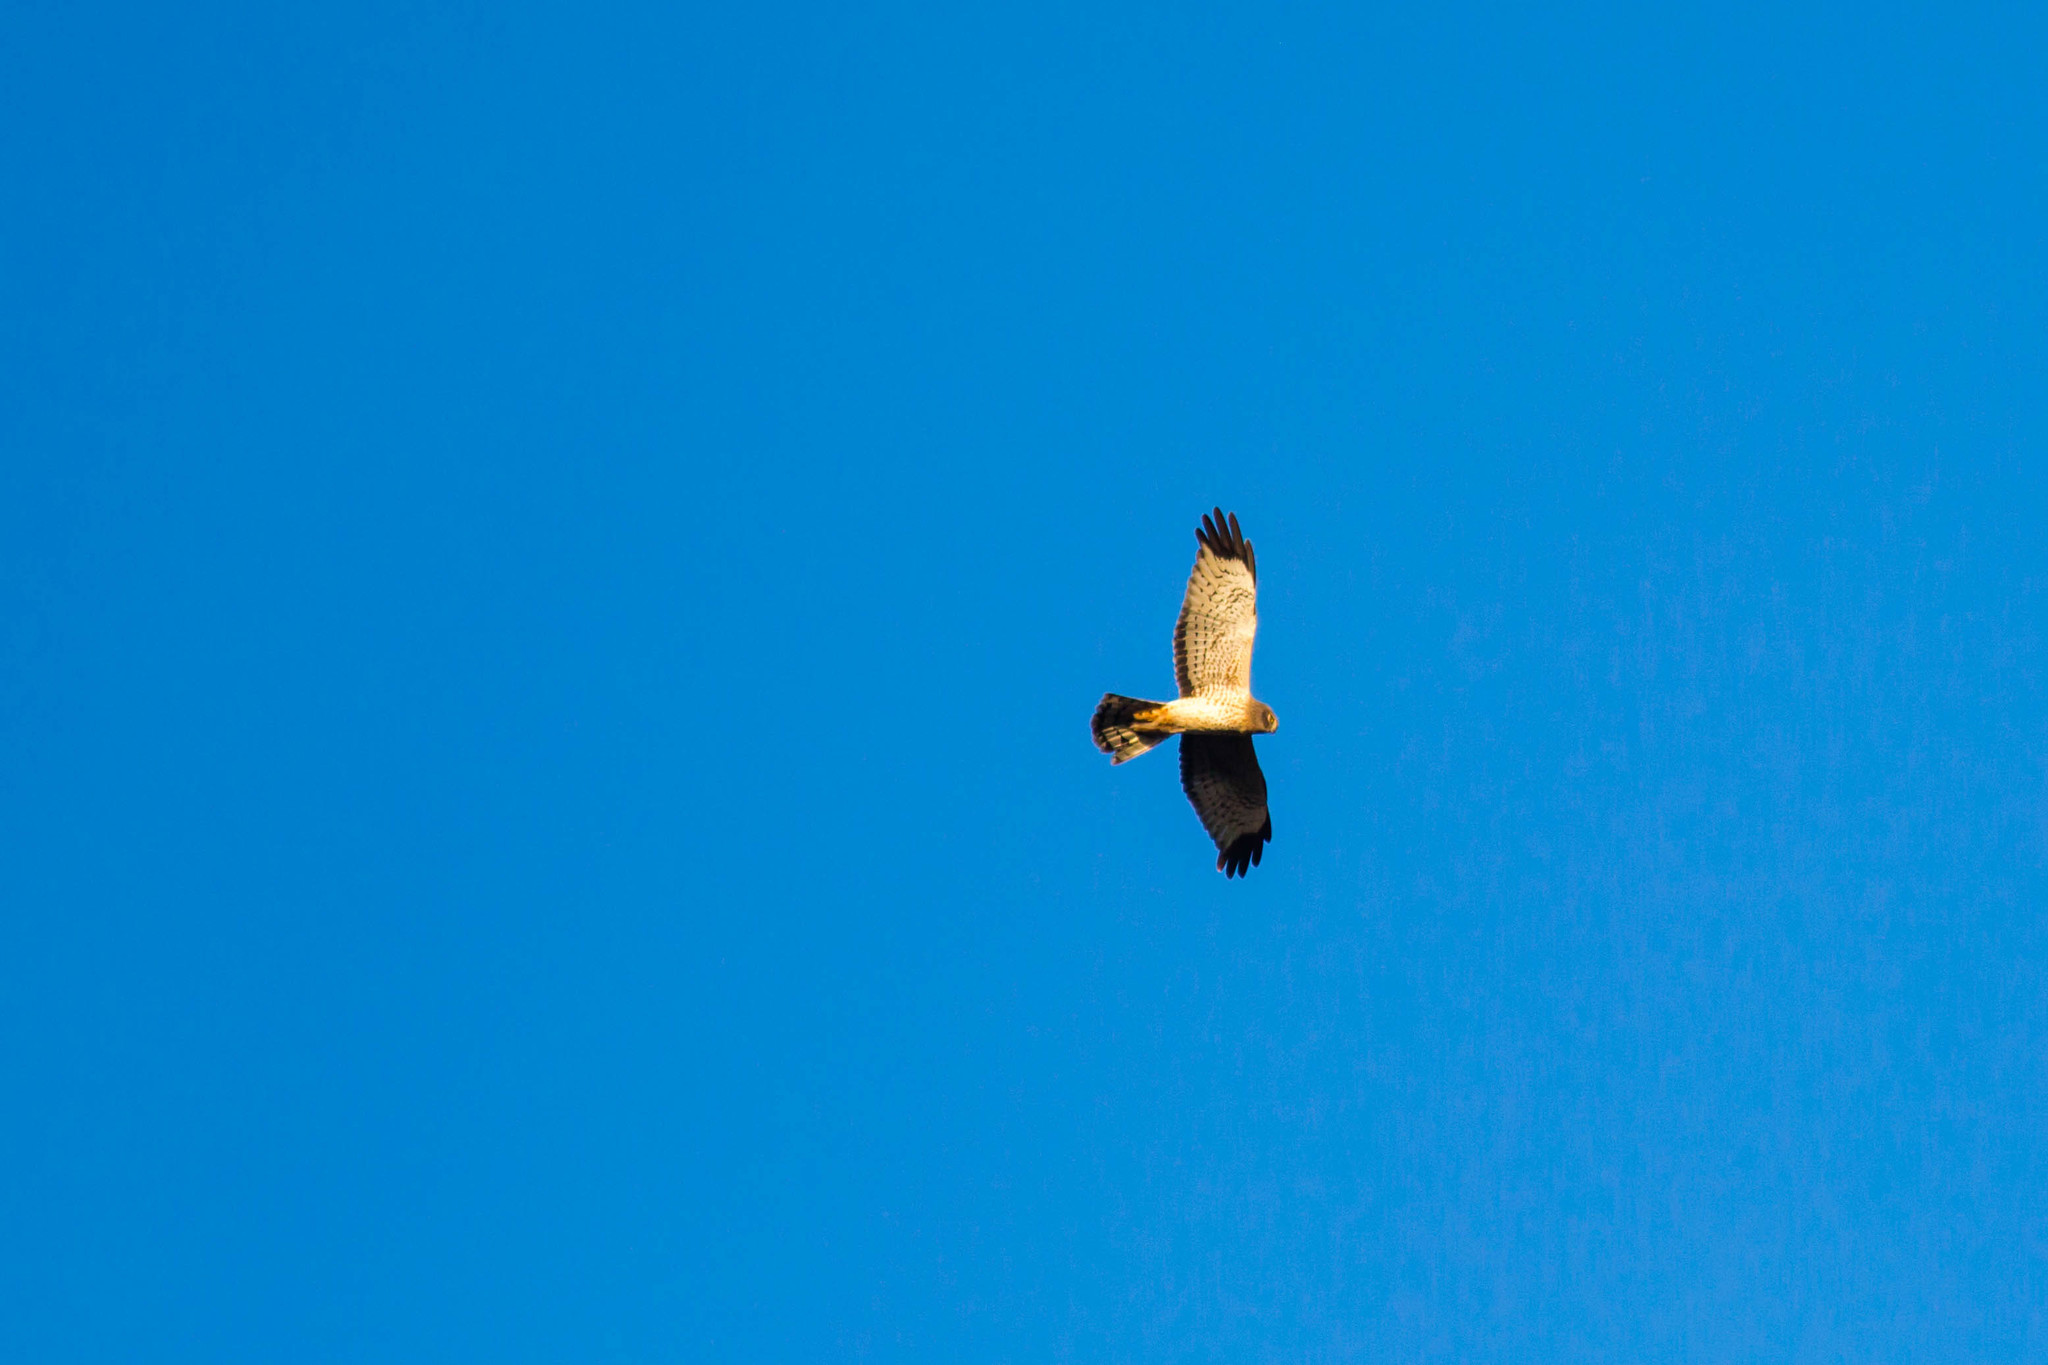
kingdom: Animalia
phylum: Chordata
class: Aves
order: Accipitriformes
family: Accipitridae
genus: Circus
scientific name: Circus cyaneus
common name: Hen harrier
